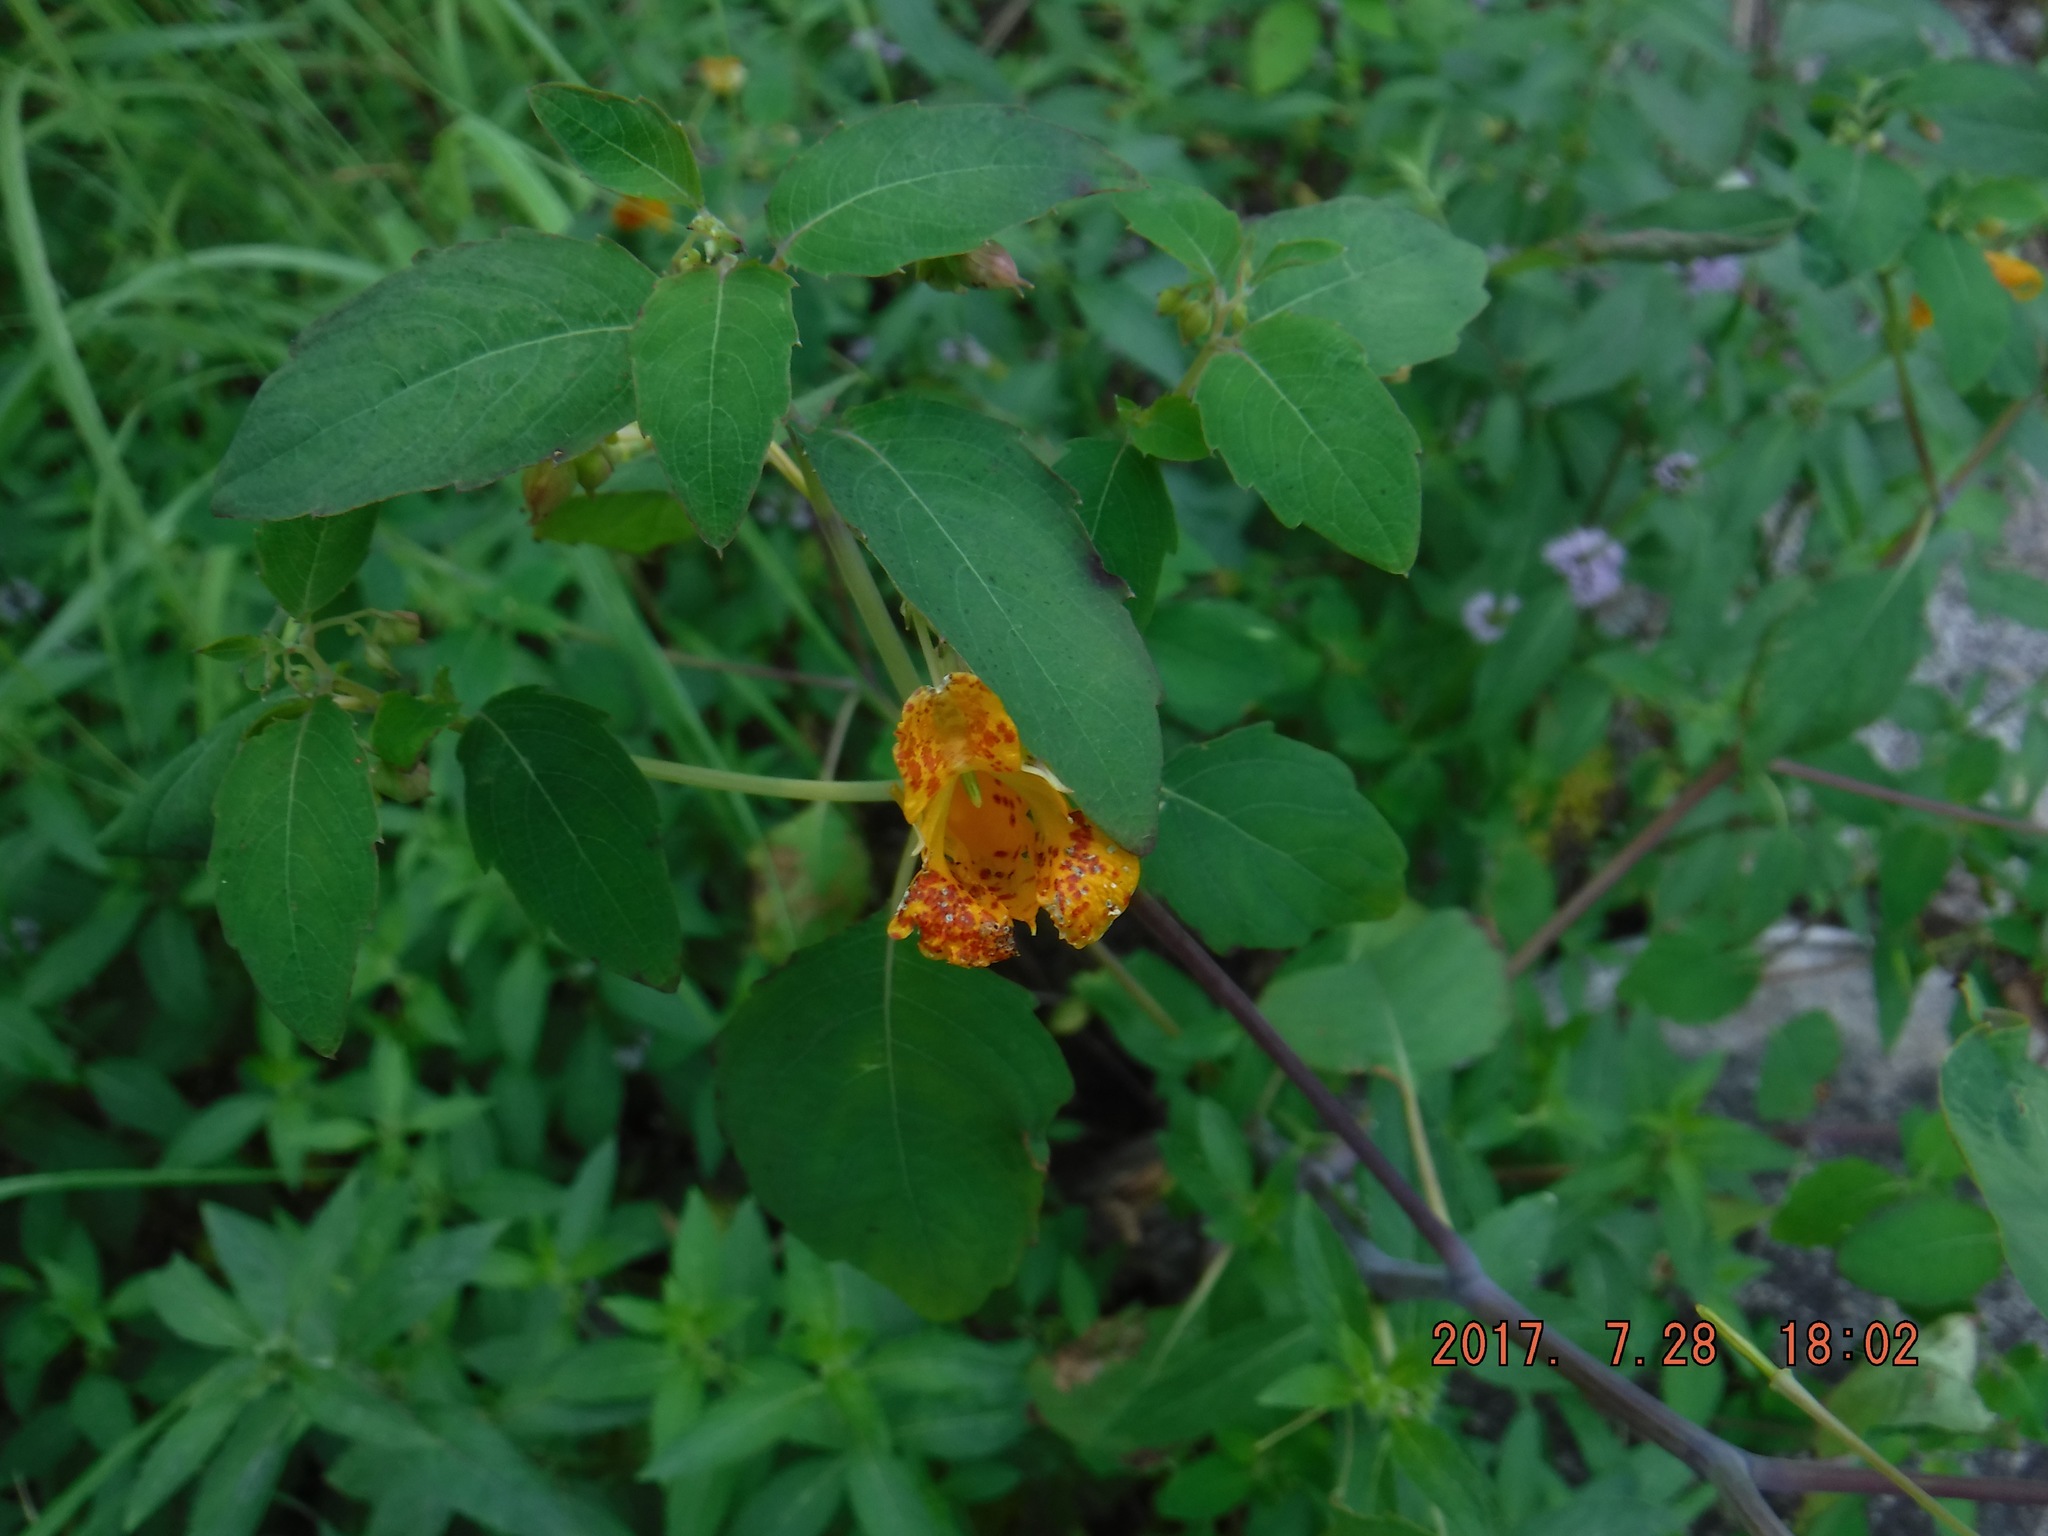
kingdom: Plantae
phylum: Tracheophyta
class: Magnoliopsida
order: Ericales
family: Balsaminaceae
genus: Impatiens
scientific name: Impatiens capensis
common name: Orange balsam
